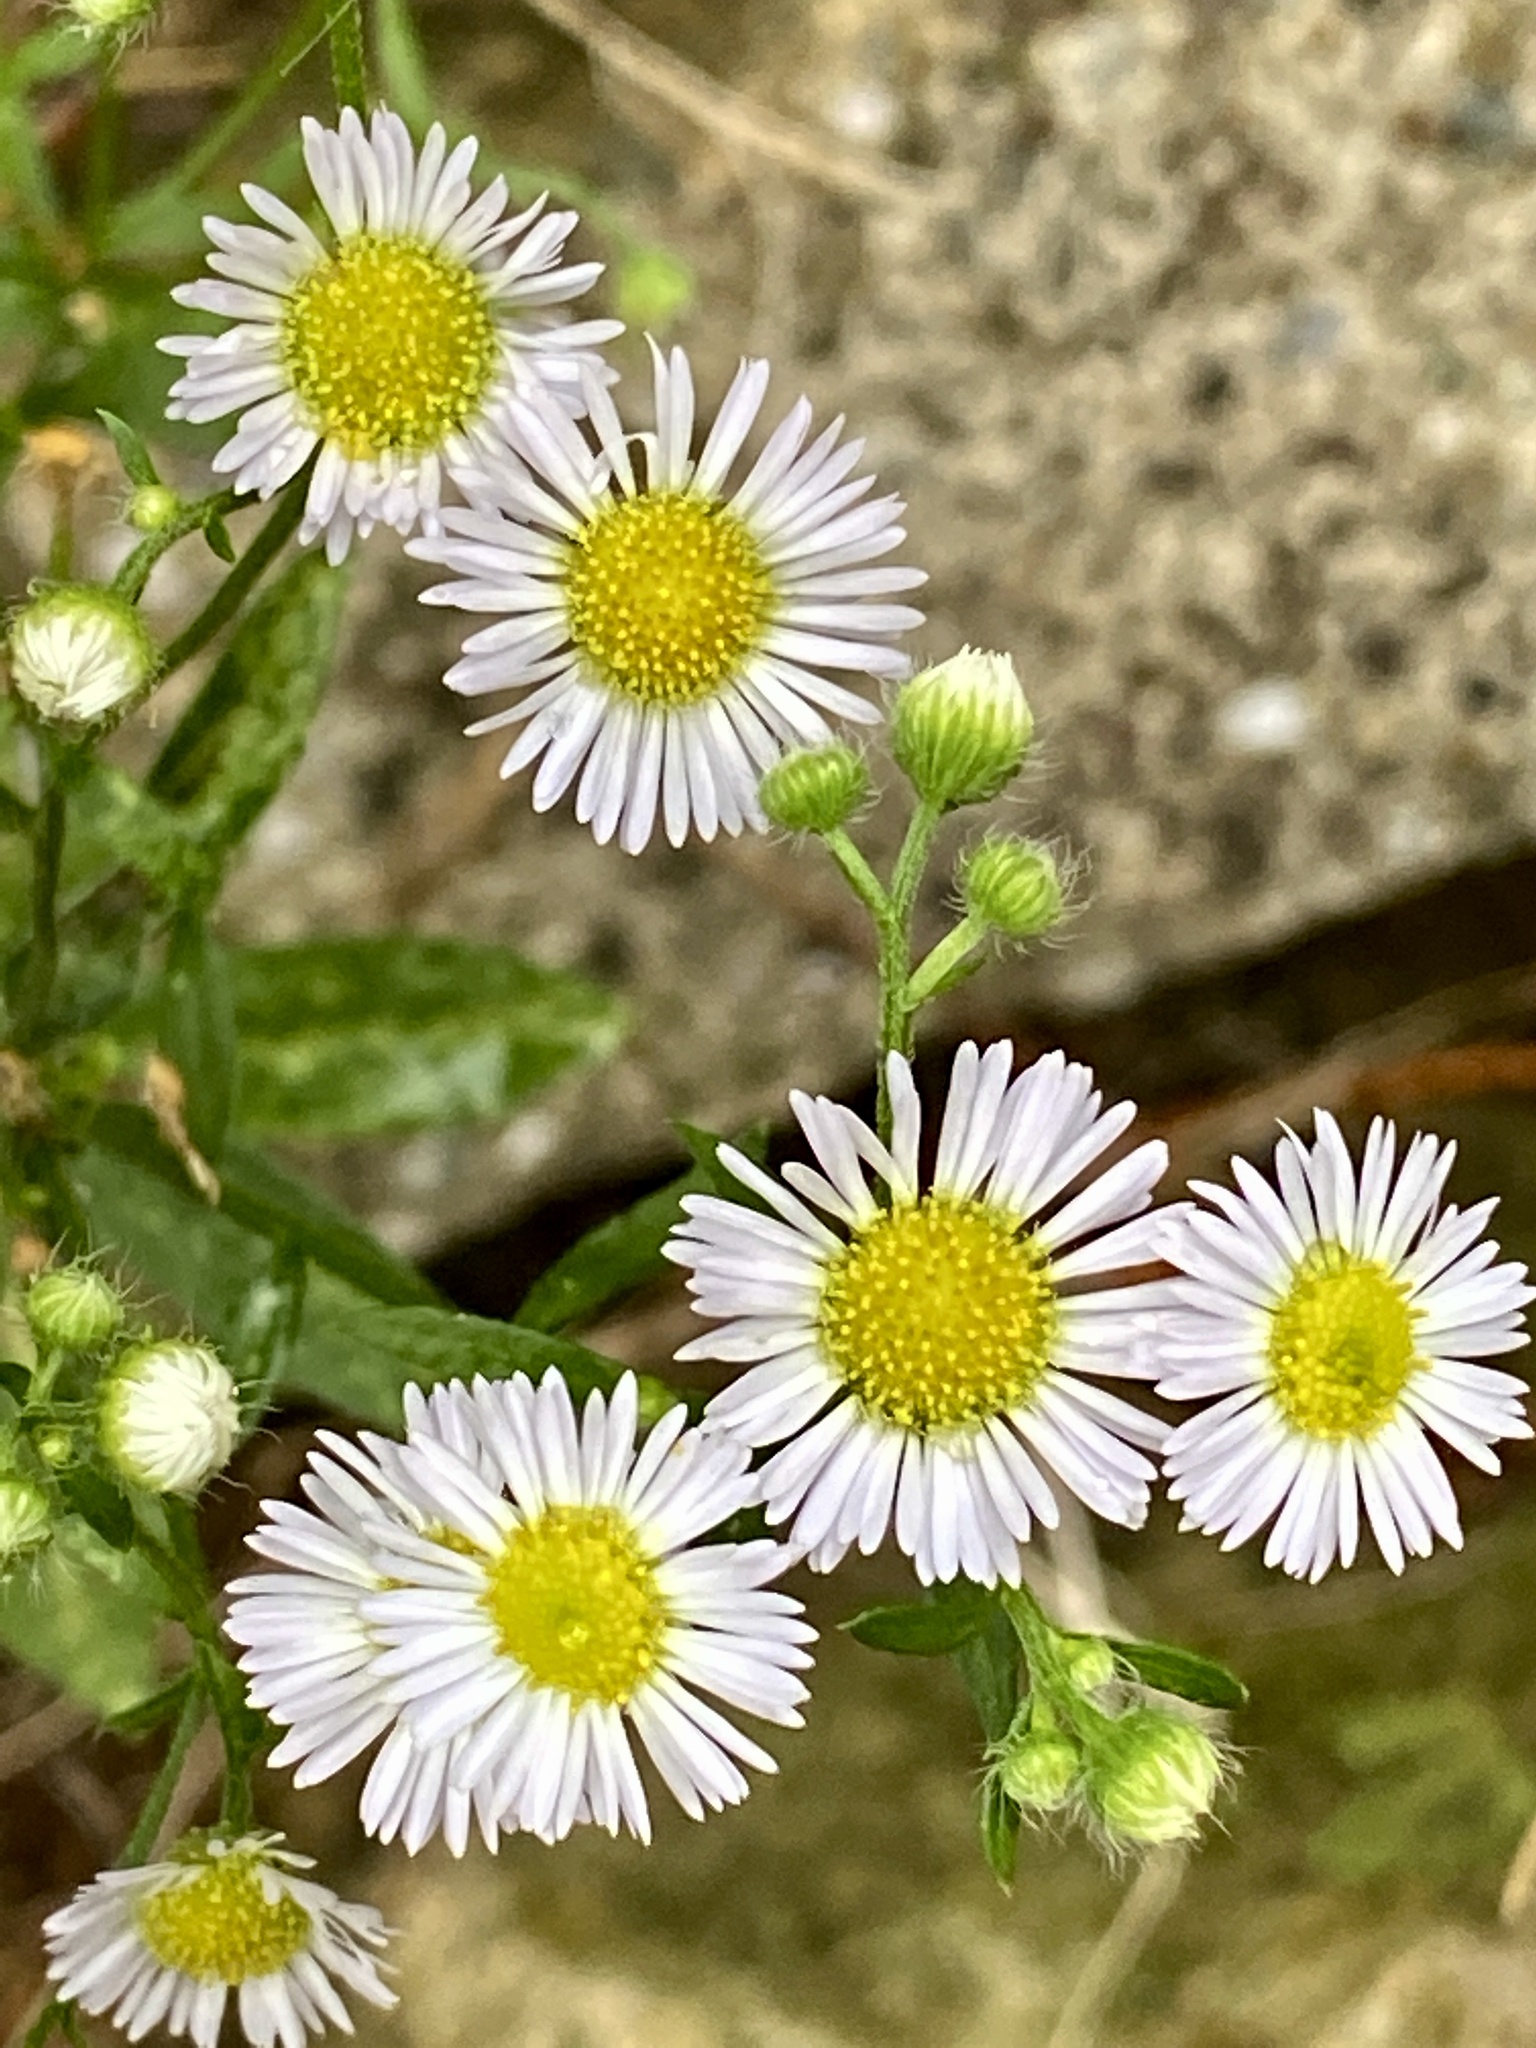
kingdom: Plantae
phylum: Tracheophyta
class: Magnoliopsida
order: Asterales
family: Asteraceae
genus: Erigeron
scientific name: Erigeron strigosus
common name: Common eastern fleabane
